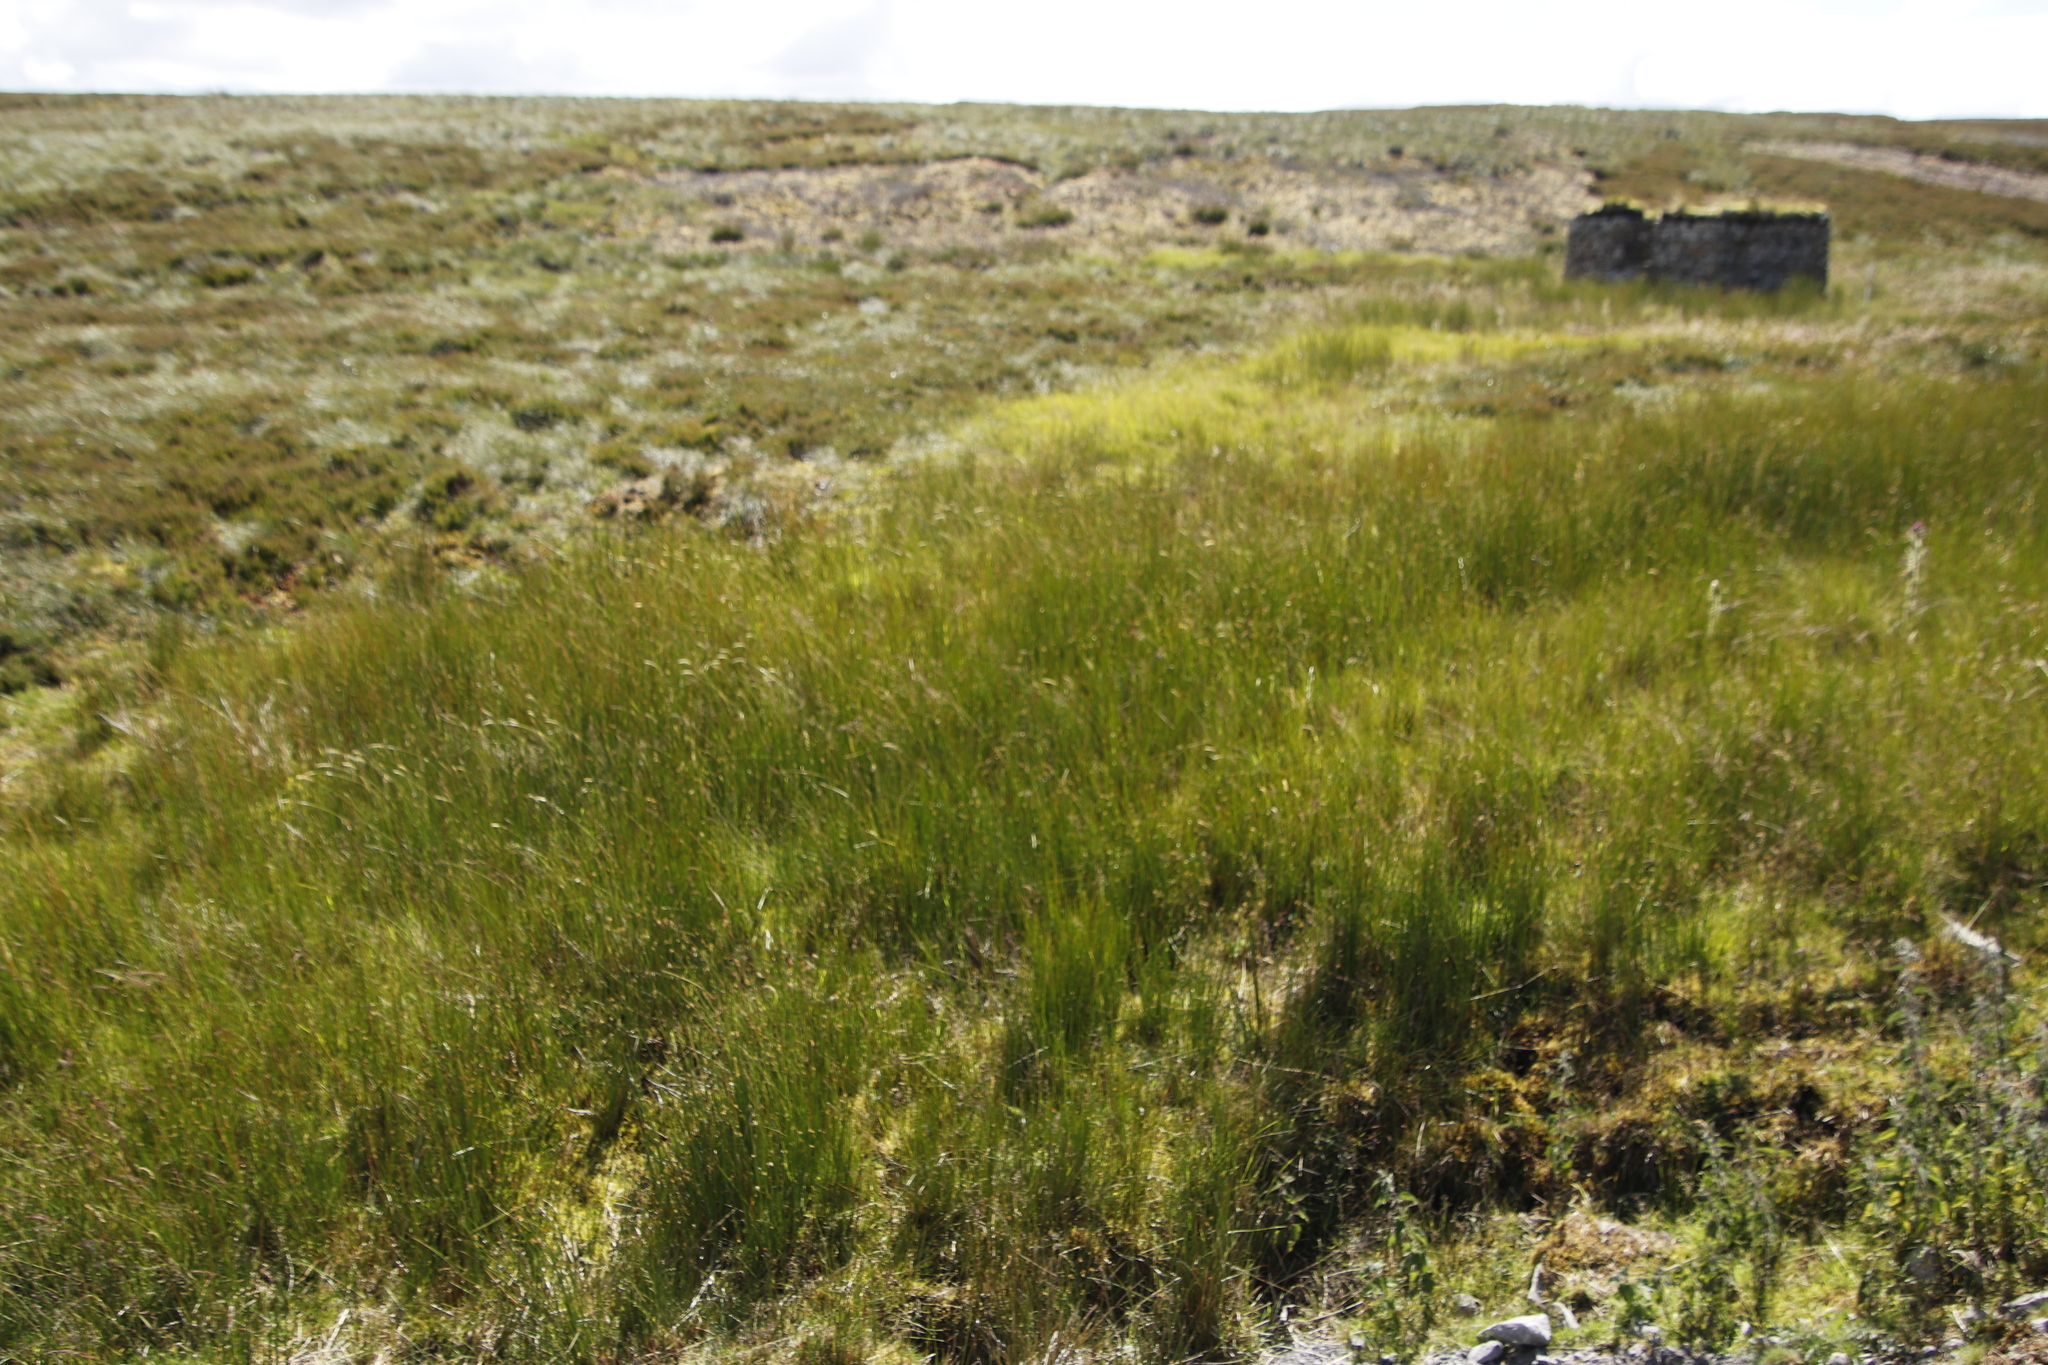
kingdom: Plantae
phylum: Tracheophyta
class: Liliopsida
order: Poales
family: Juncaceae
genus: Juncus
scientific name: Juncus effusus
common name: Soft rush
